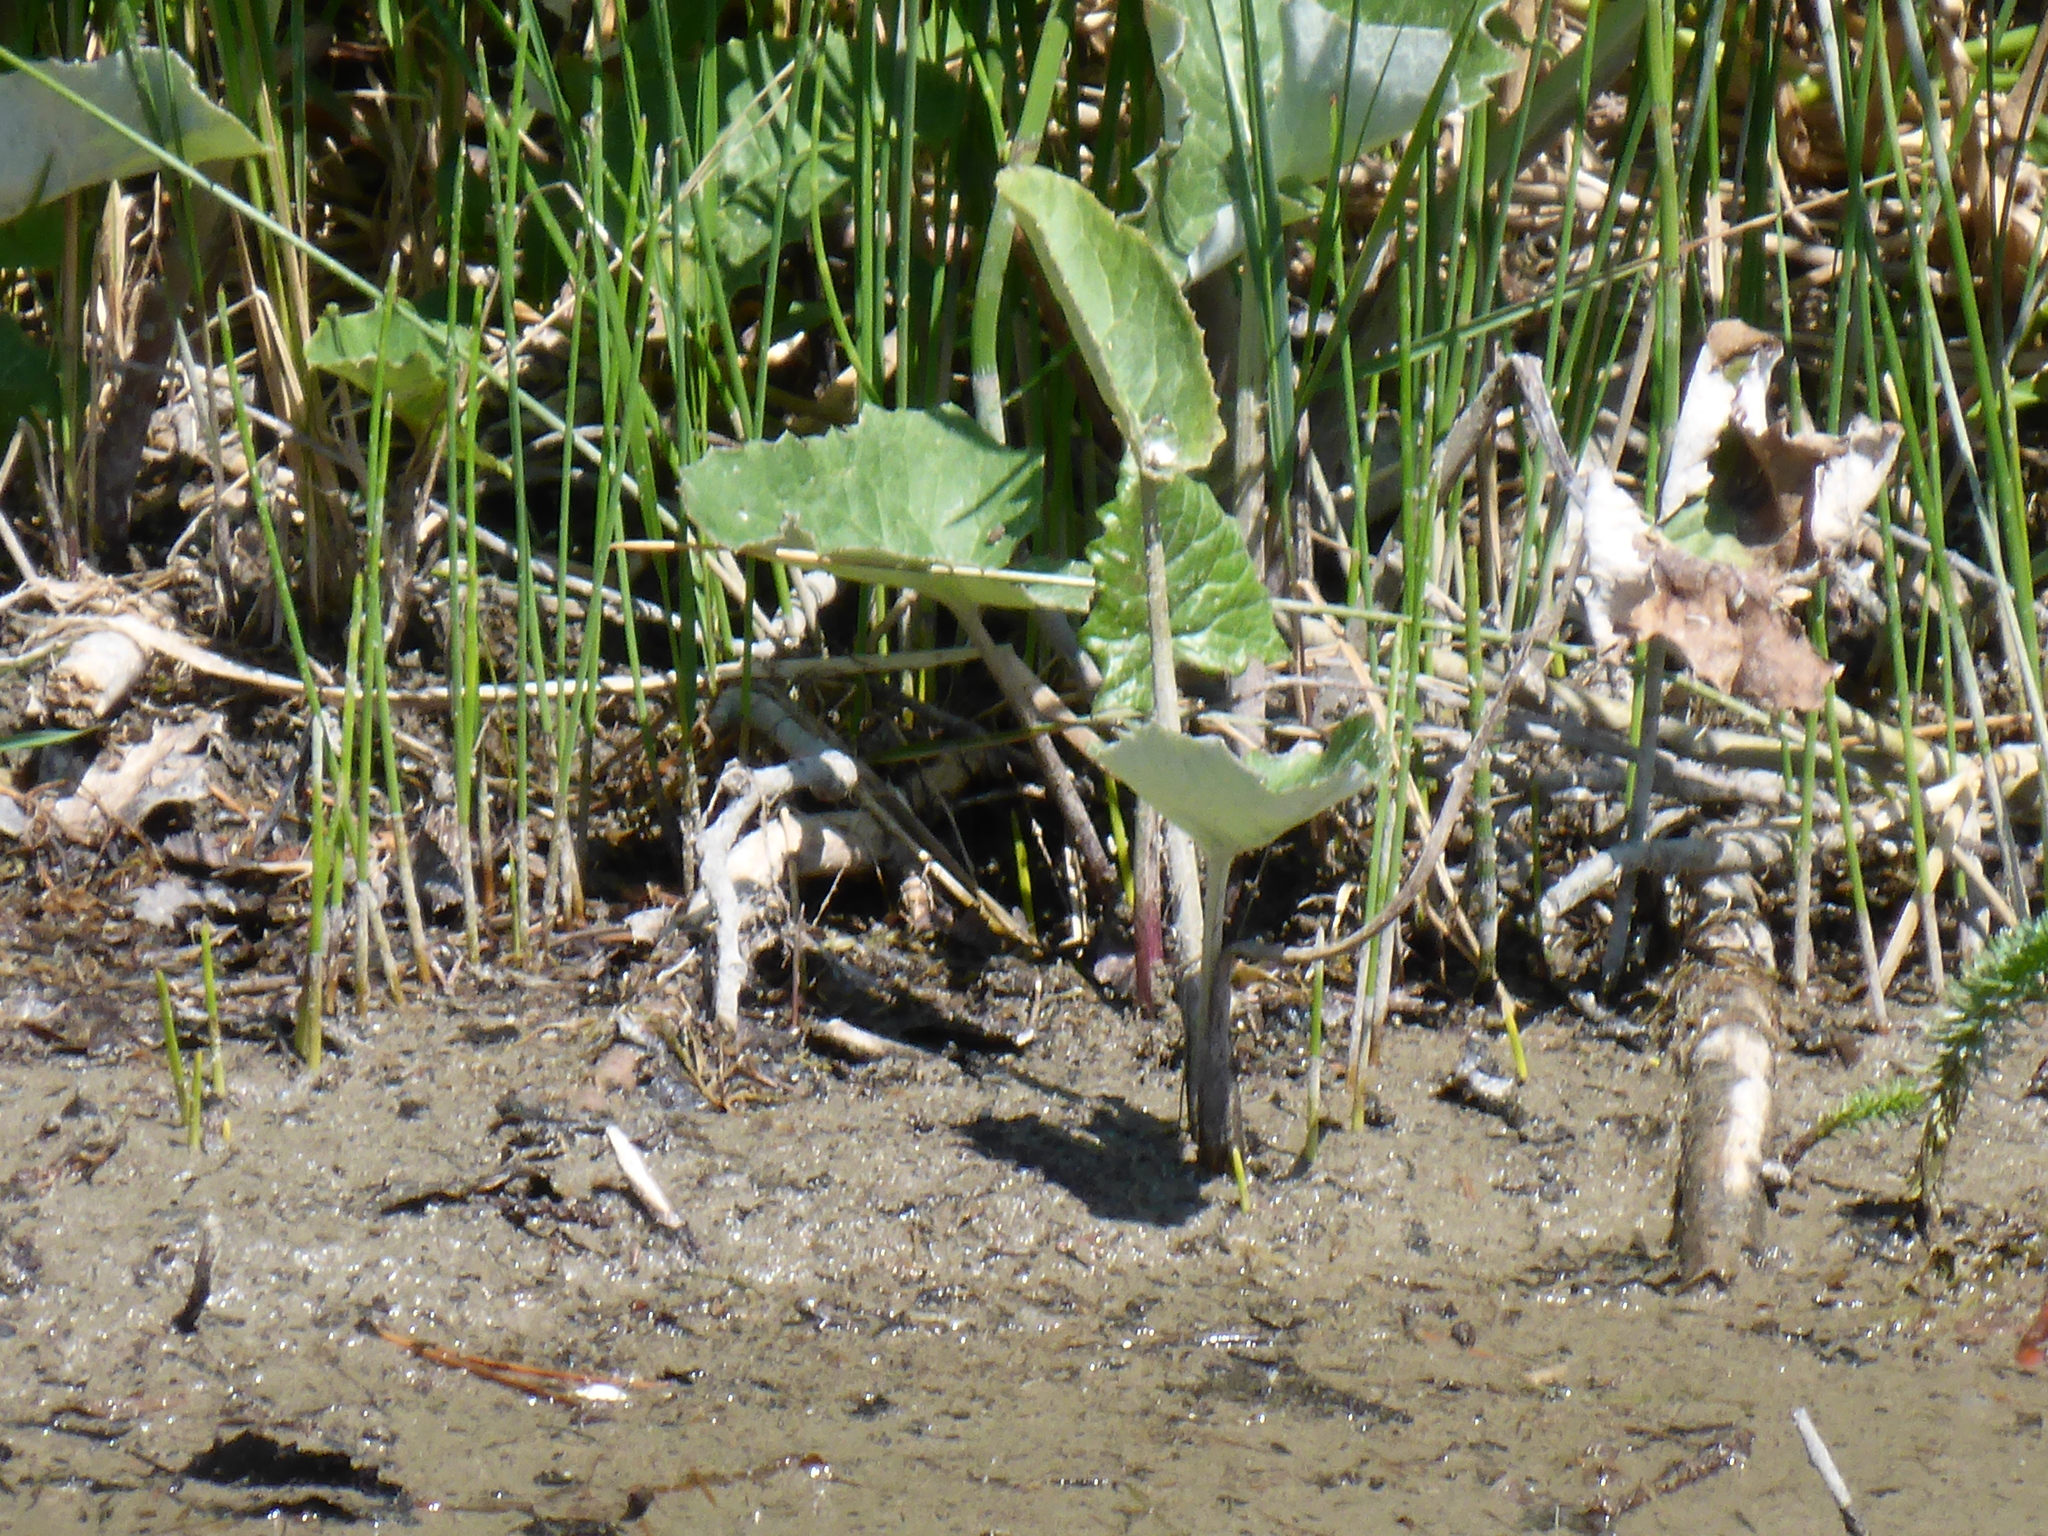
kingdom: Plantae
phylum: Tracheophyta
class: Magnoliopsida
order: Asterales
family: Asteraceae
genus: Petasites
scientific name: Petasites frigidus
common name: Arctic butterbur
